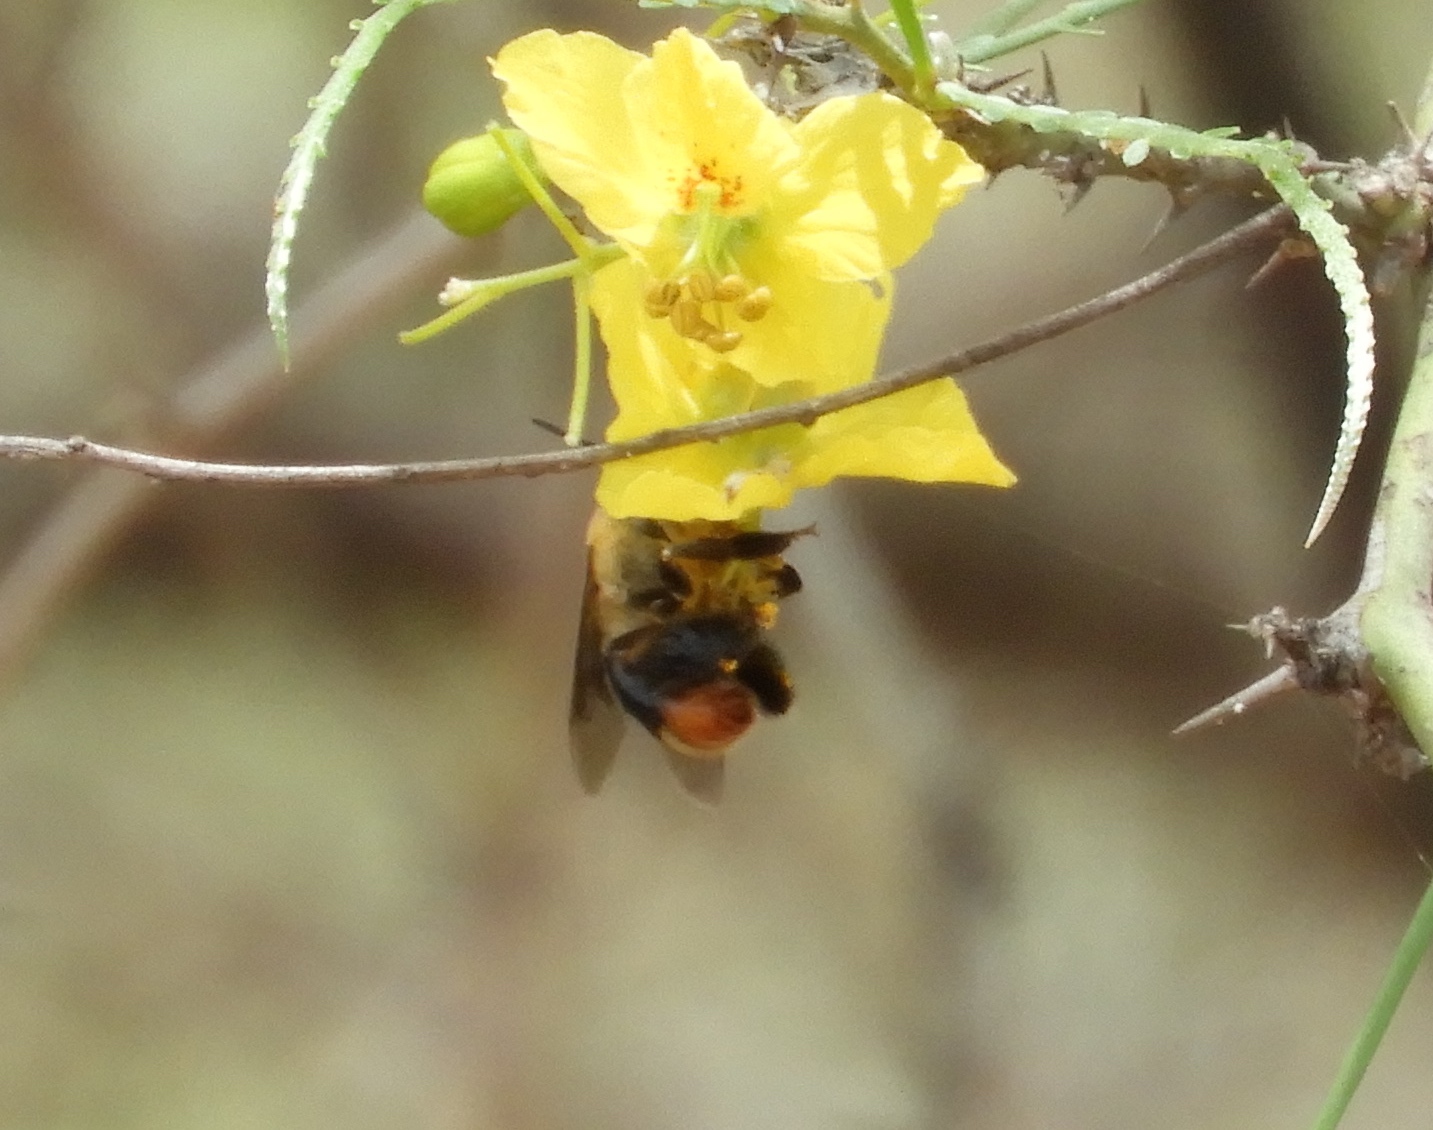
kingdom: Animalia
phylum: Arthropoda
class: Insecta
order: Hymenoptera
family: Apidae
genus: Centris
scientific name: Centris varia
